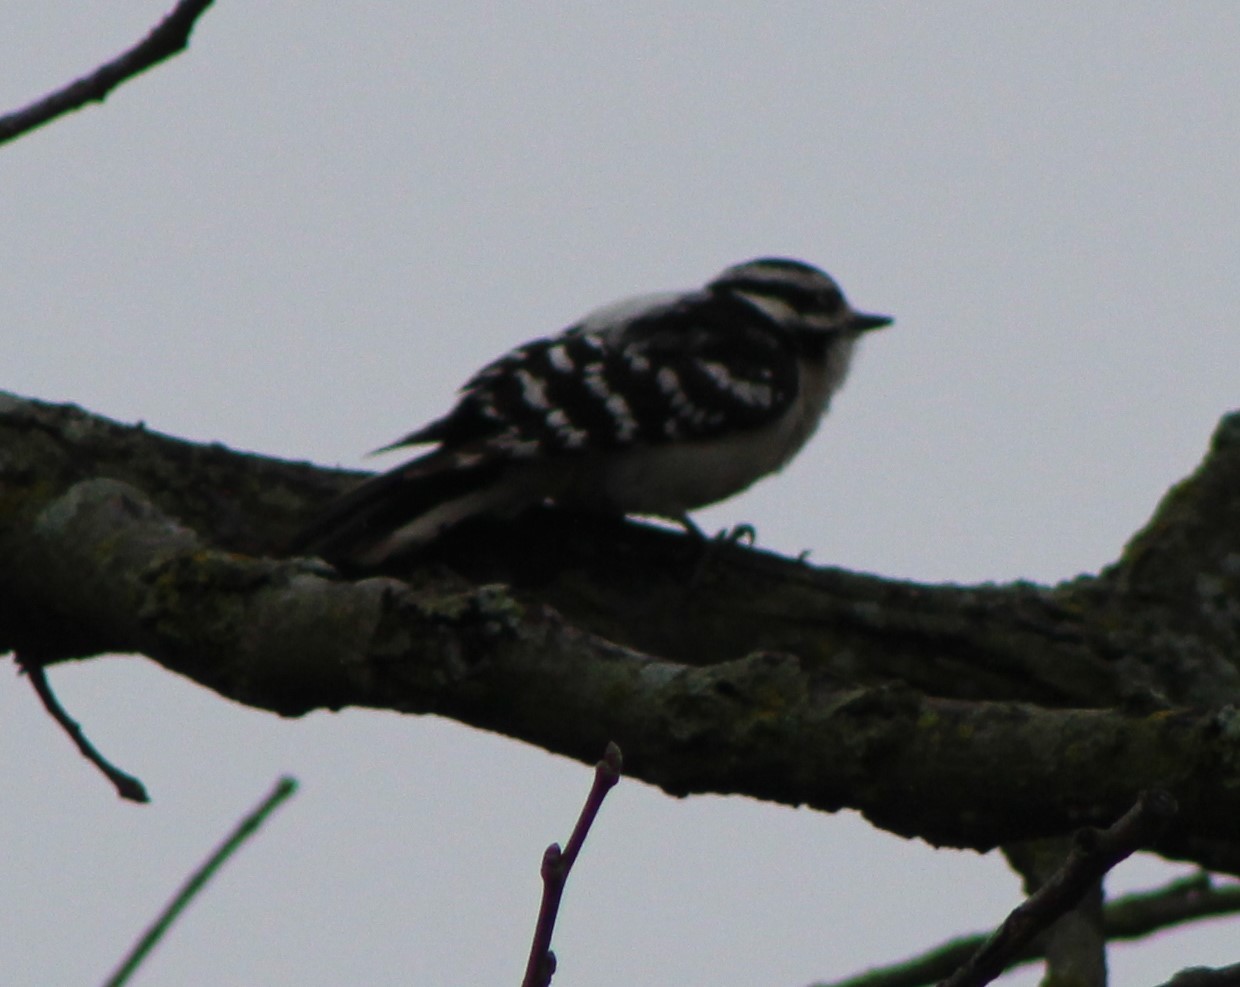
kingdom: Animalia
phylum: Chordata
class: Aves
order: Piciformes
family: Picidae
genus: Dryobates
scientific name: Dryobates pubescens
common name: Downy woodpecker
